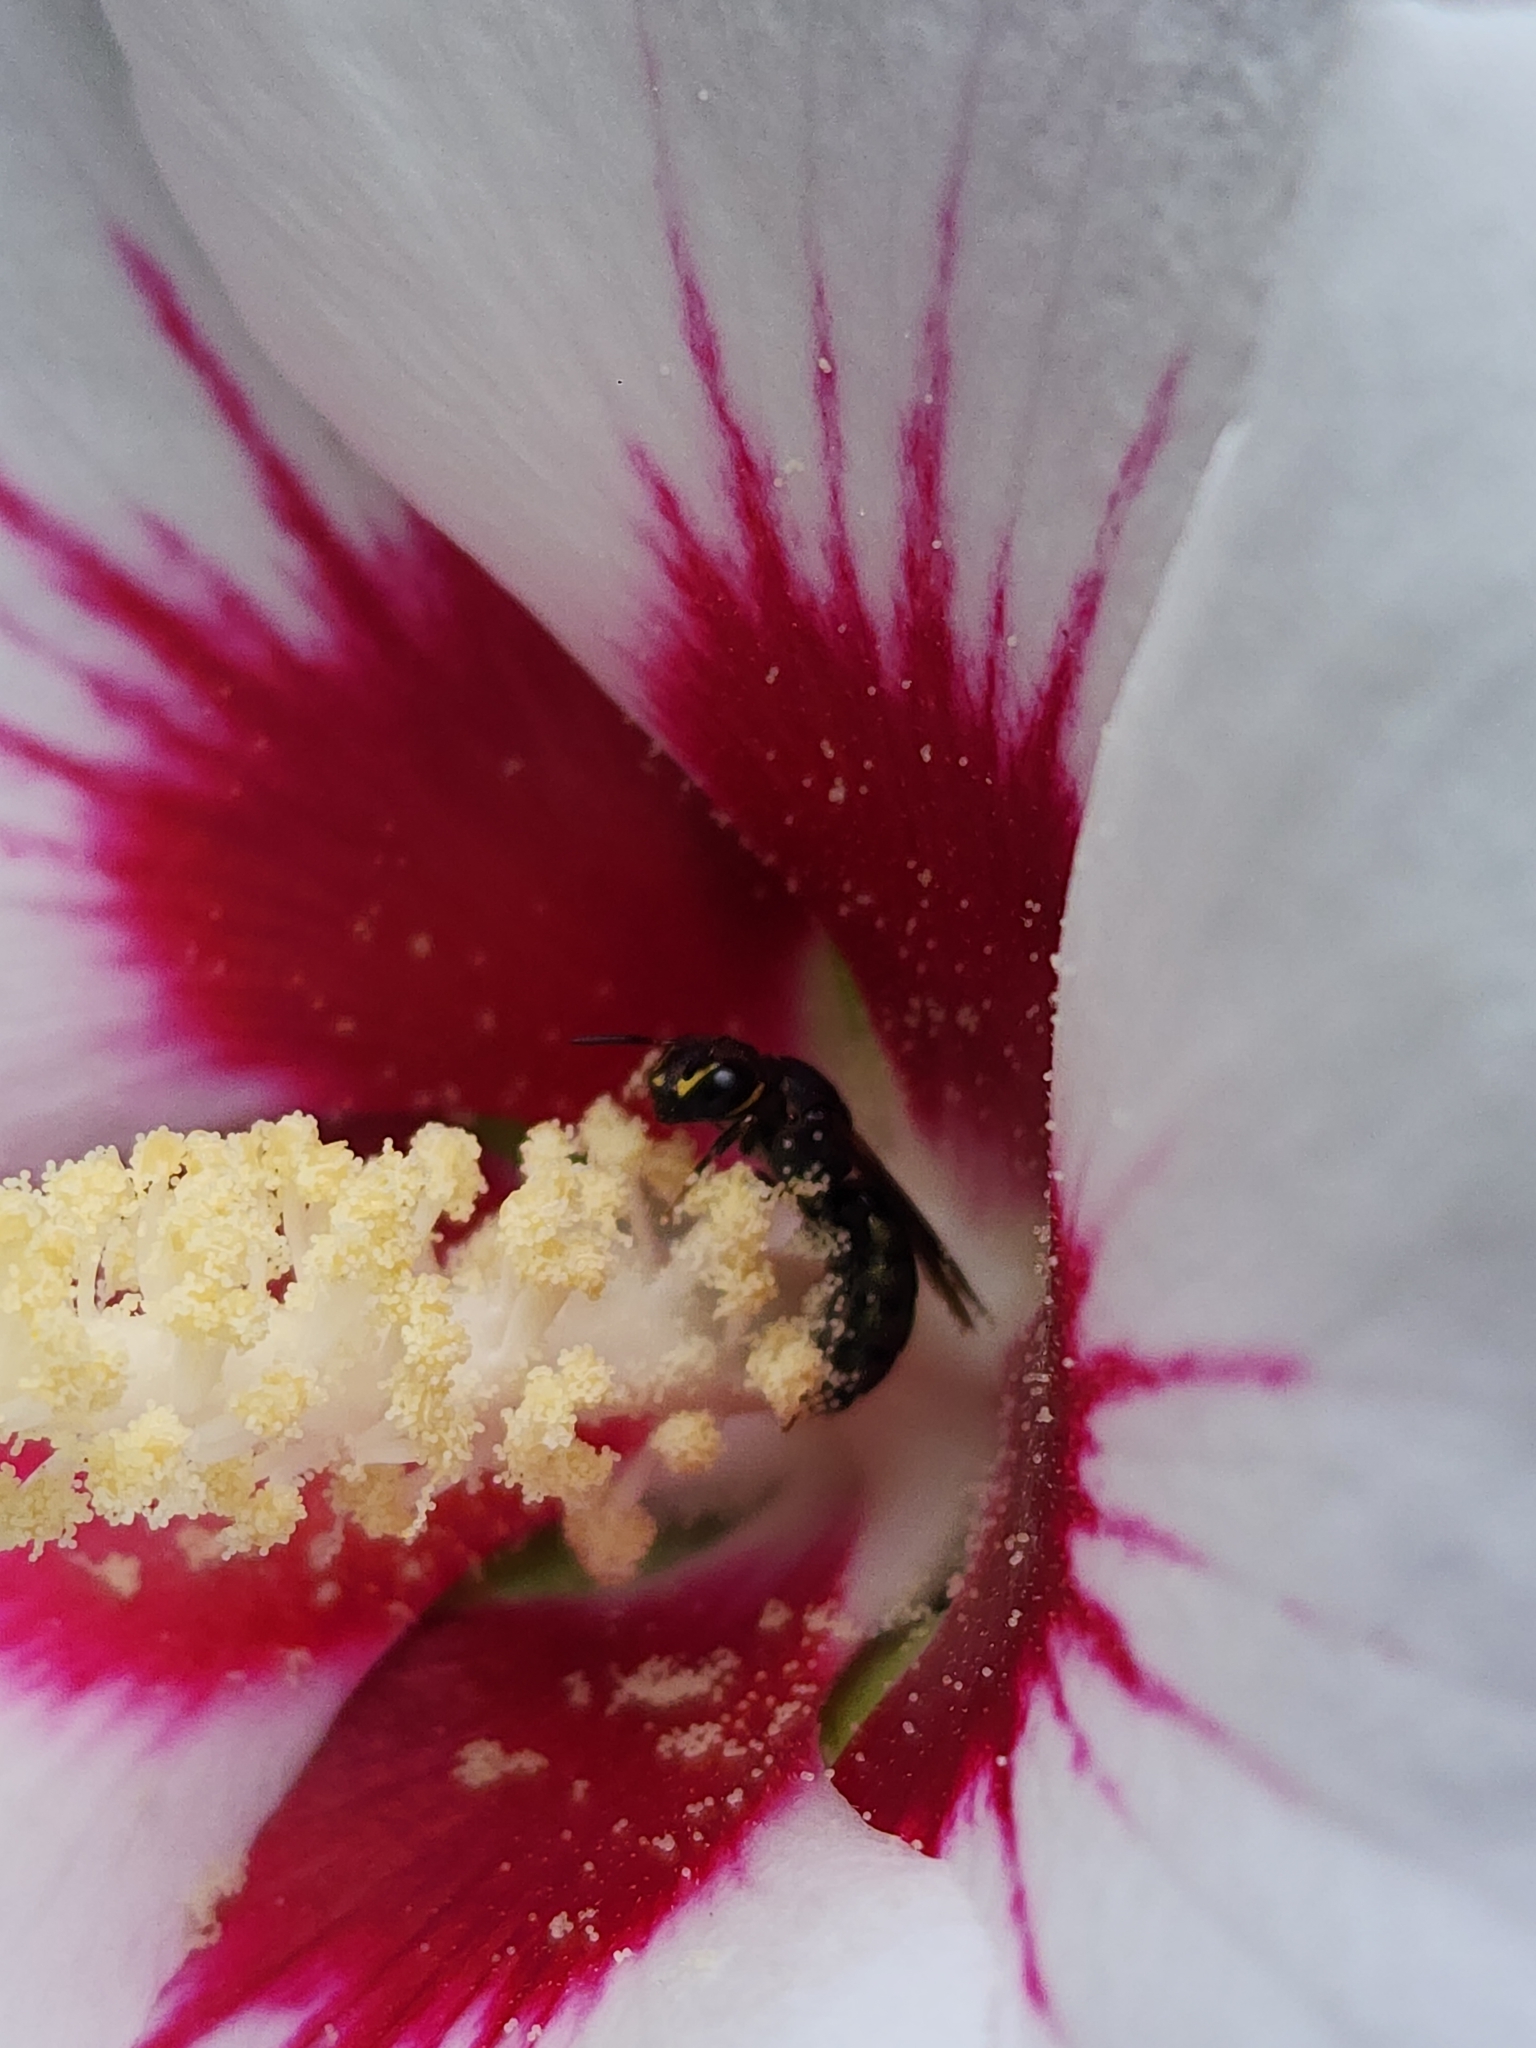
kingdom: Animalia
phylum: Arthropoda
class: Insecta
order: Hymenoptera
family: Apidae
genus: Ceratina
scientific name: Ceratina
